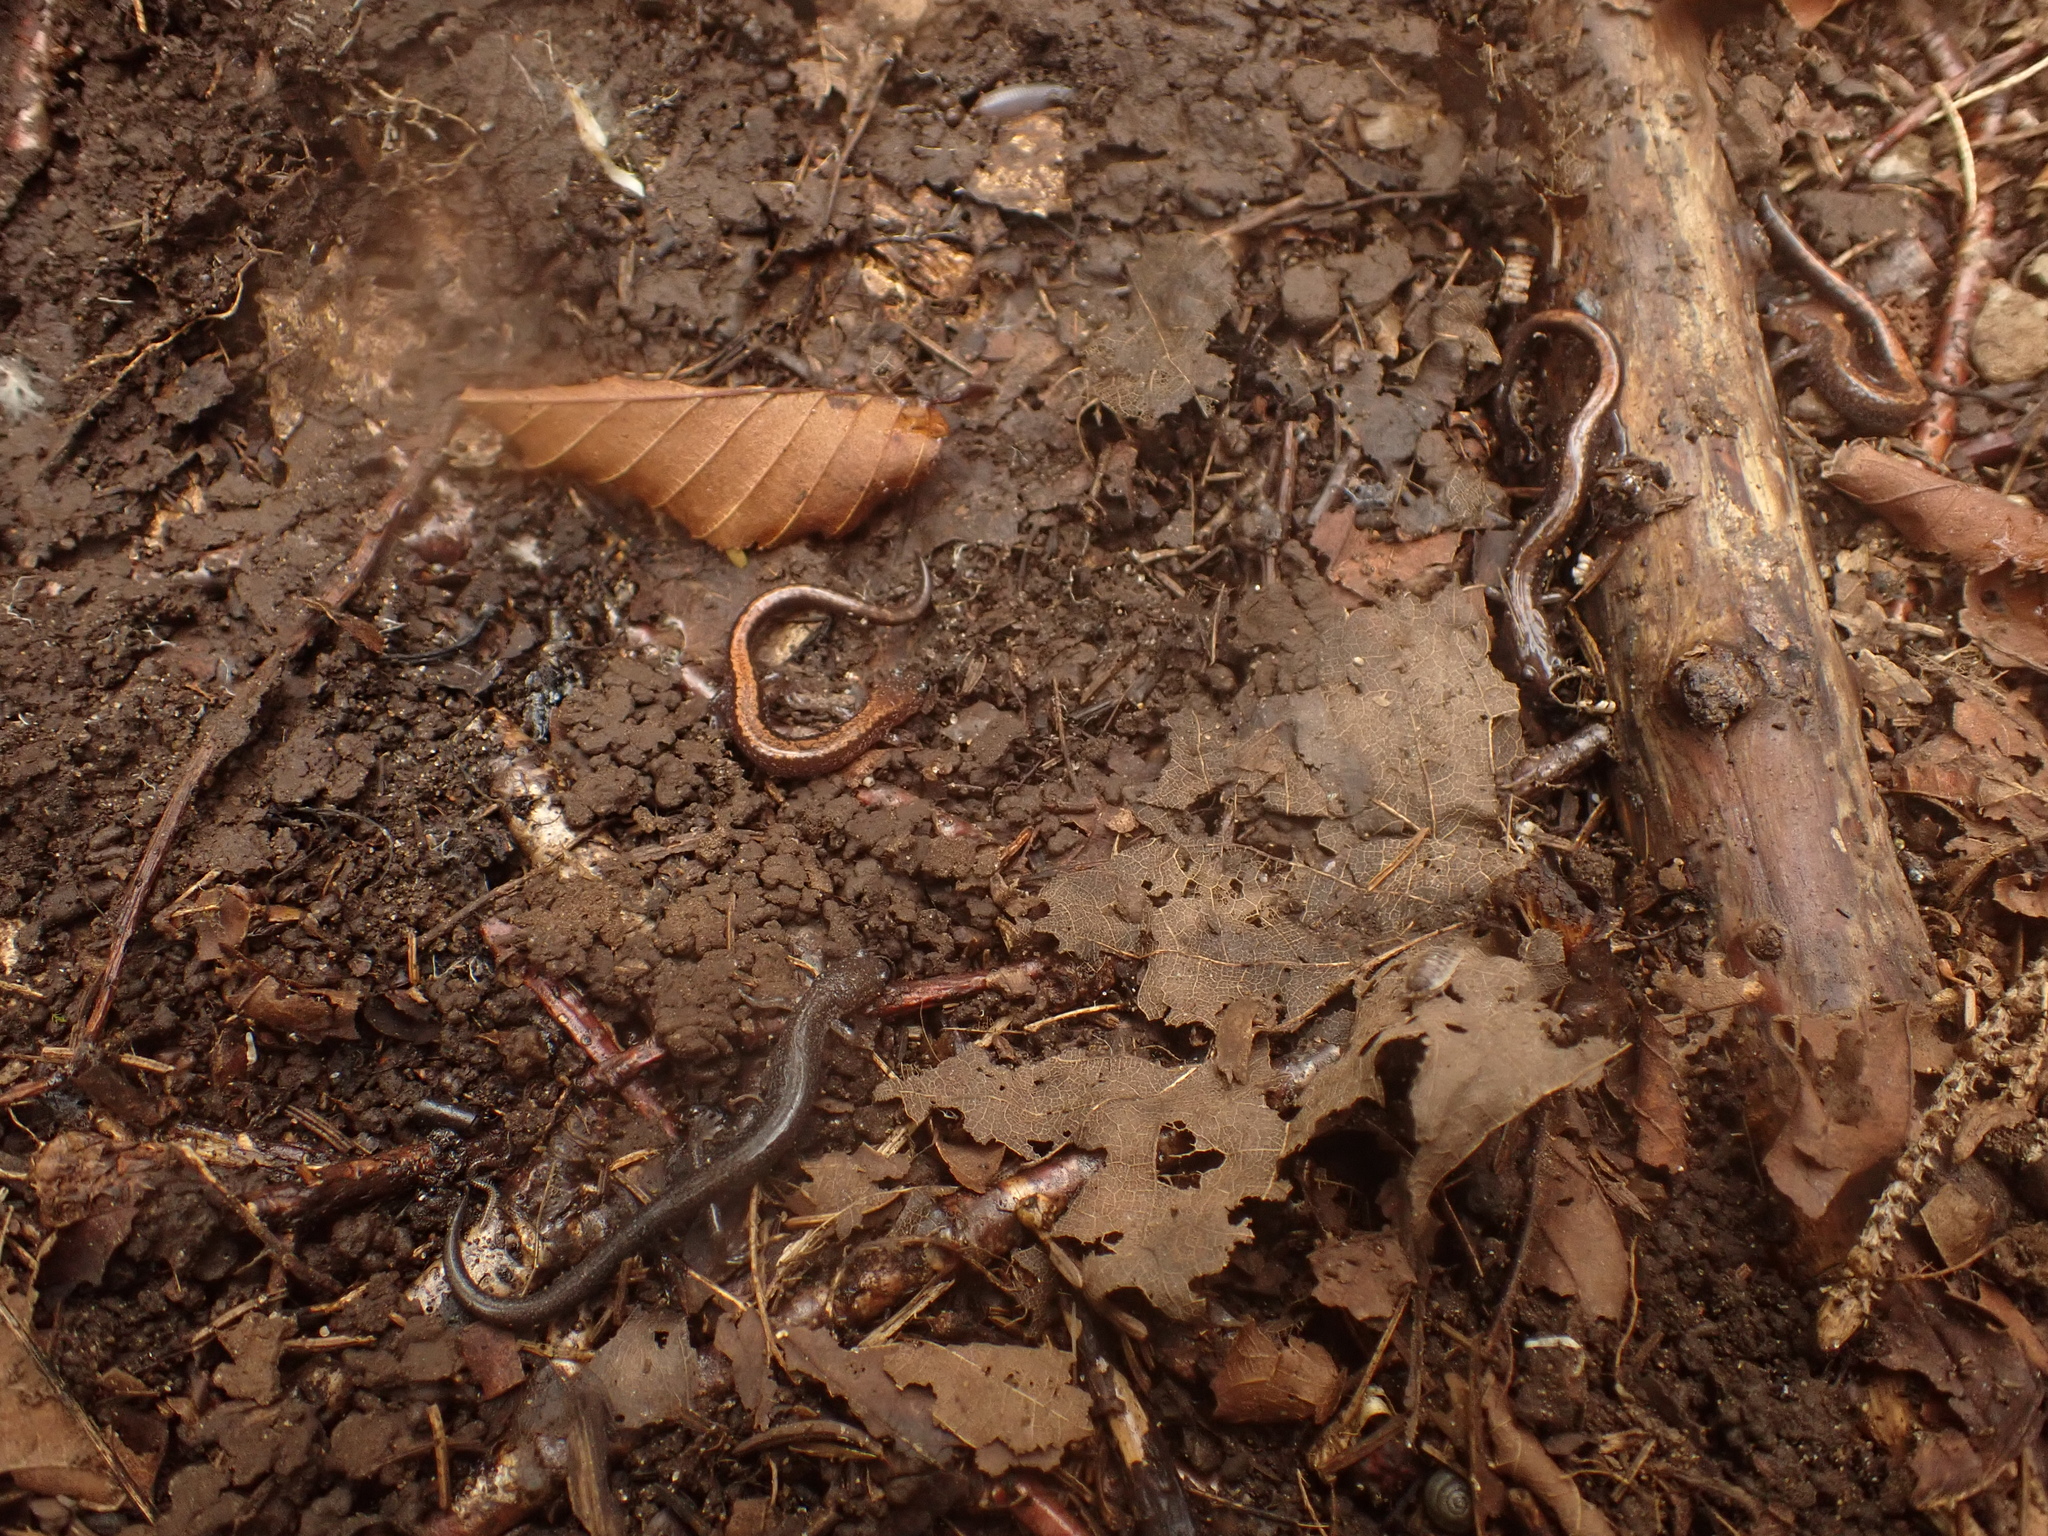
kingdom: Animalia
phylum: Chordata
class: Amphibia
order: Caudata
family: Plethodontidae
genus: Plethodon
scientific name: Plethodon cinereus
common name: Redback salamander
